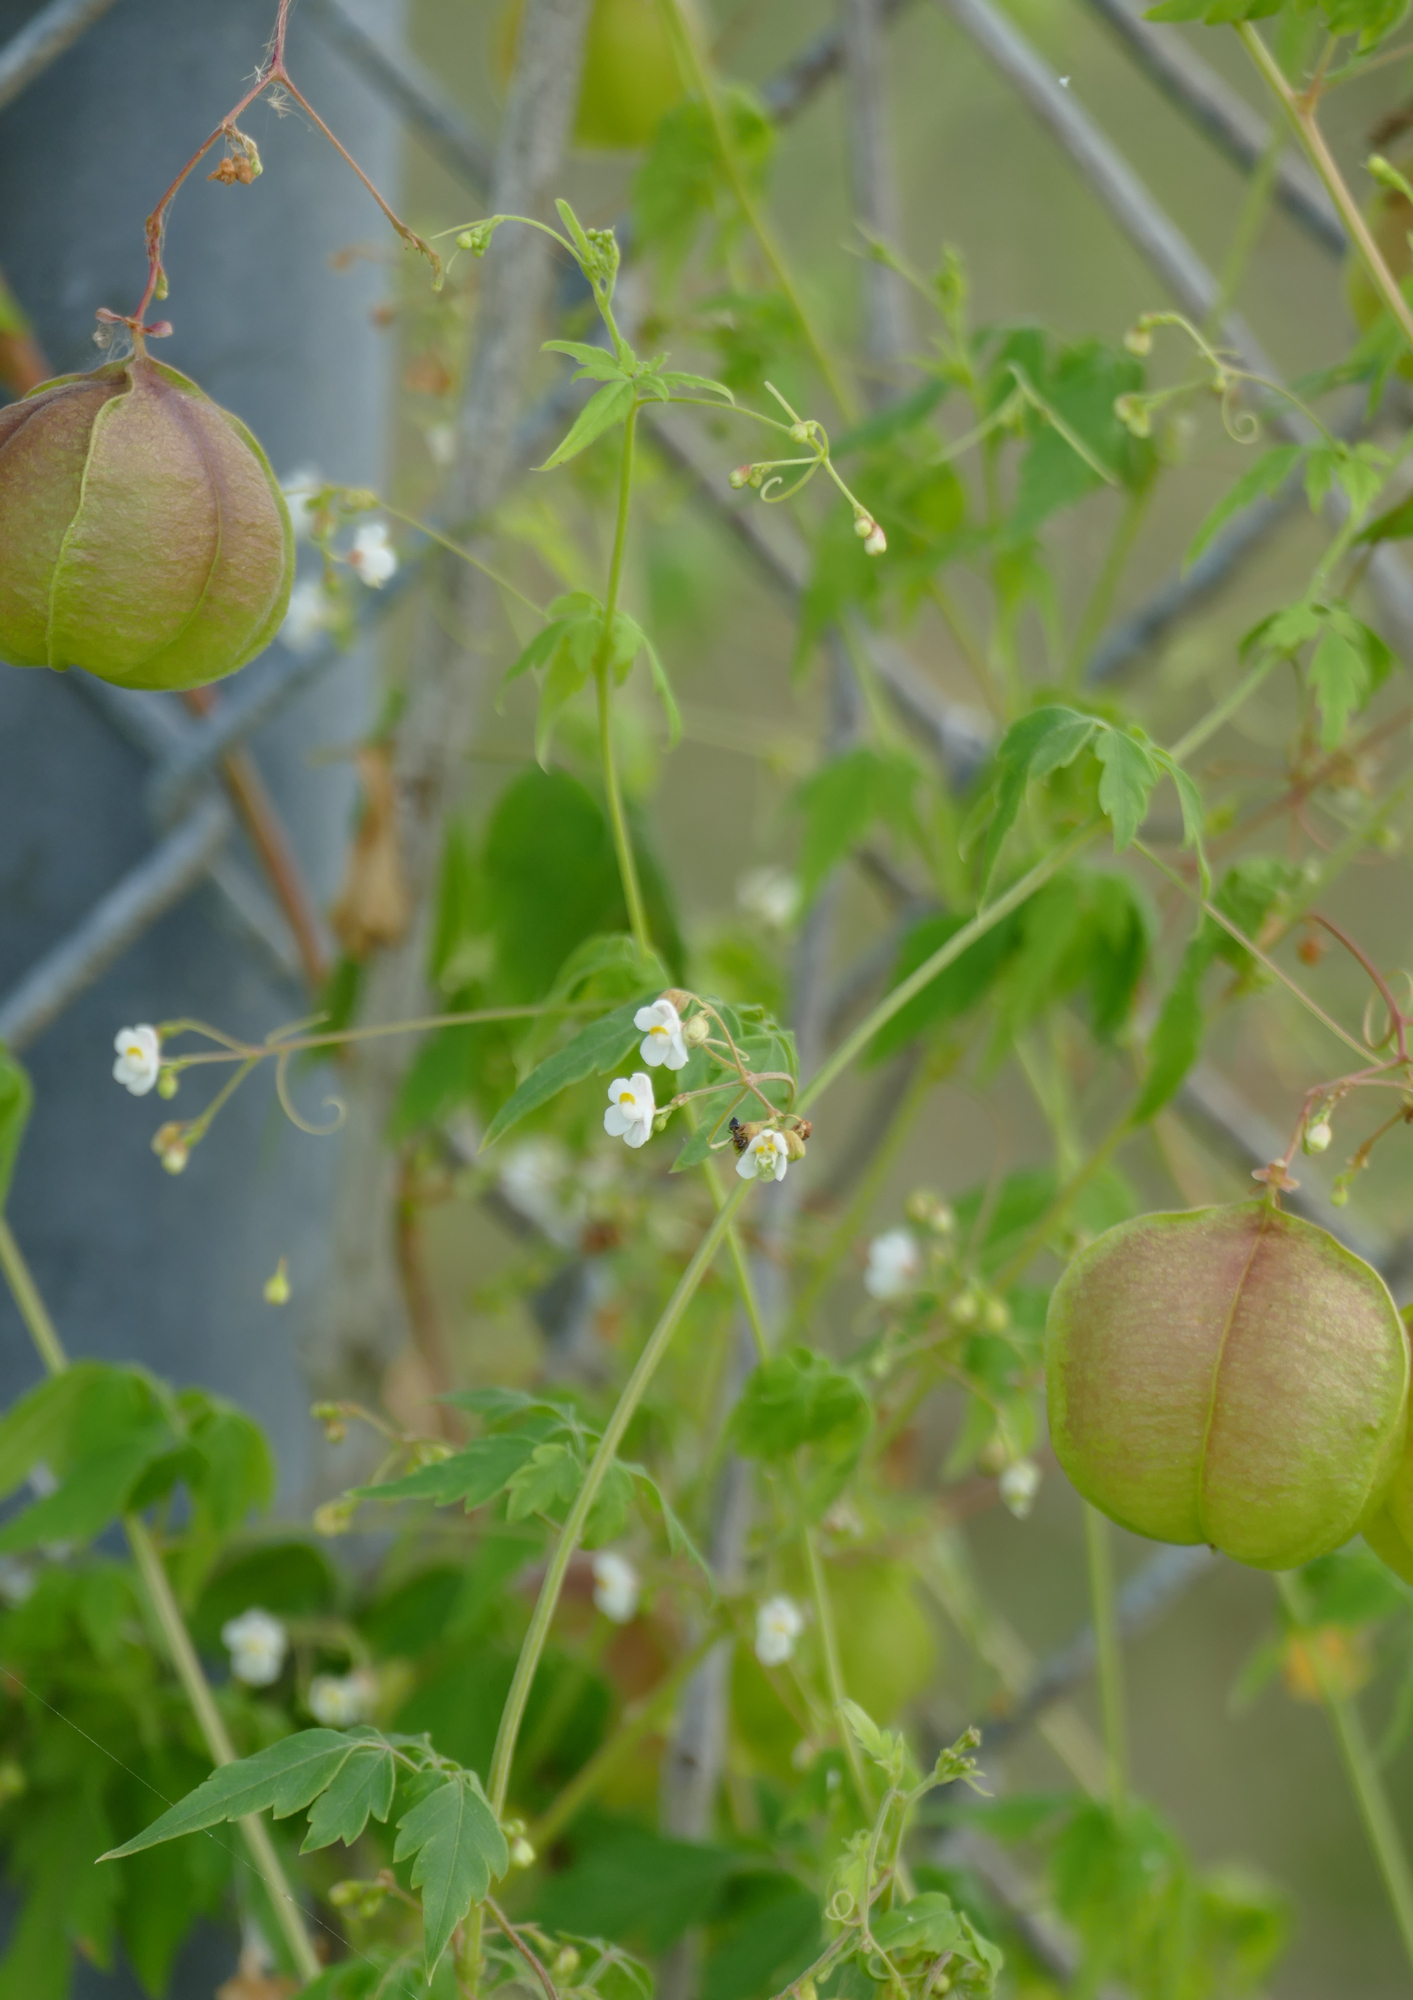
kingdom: Plantae
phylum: Tracheophyta
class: Magnoliopsida
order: Sapindales
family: Sapindaceae
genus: Cardiospermum
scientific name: Cardiospermum halicacabum
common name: Balloon vine
